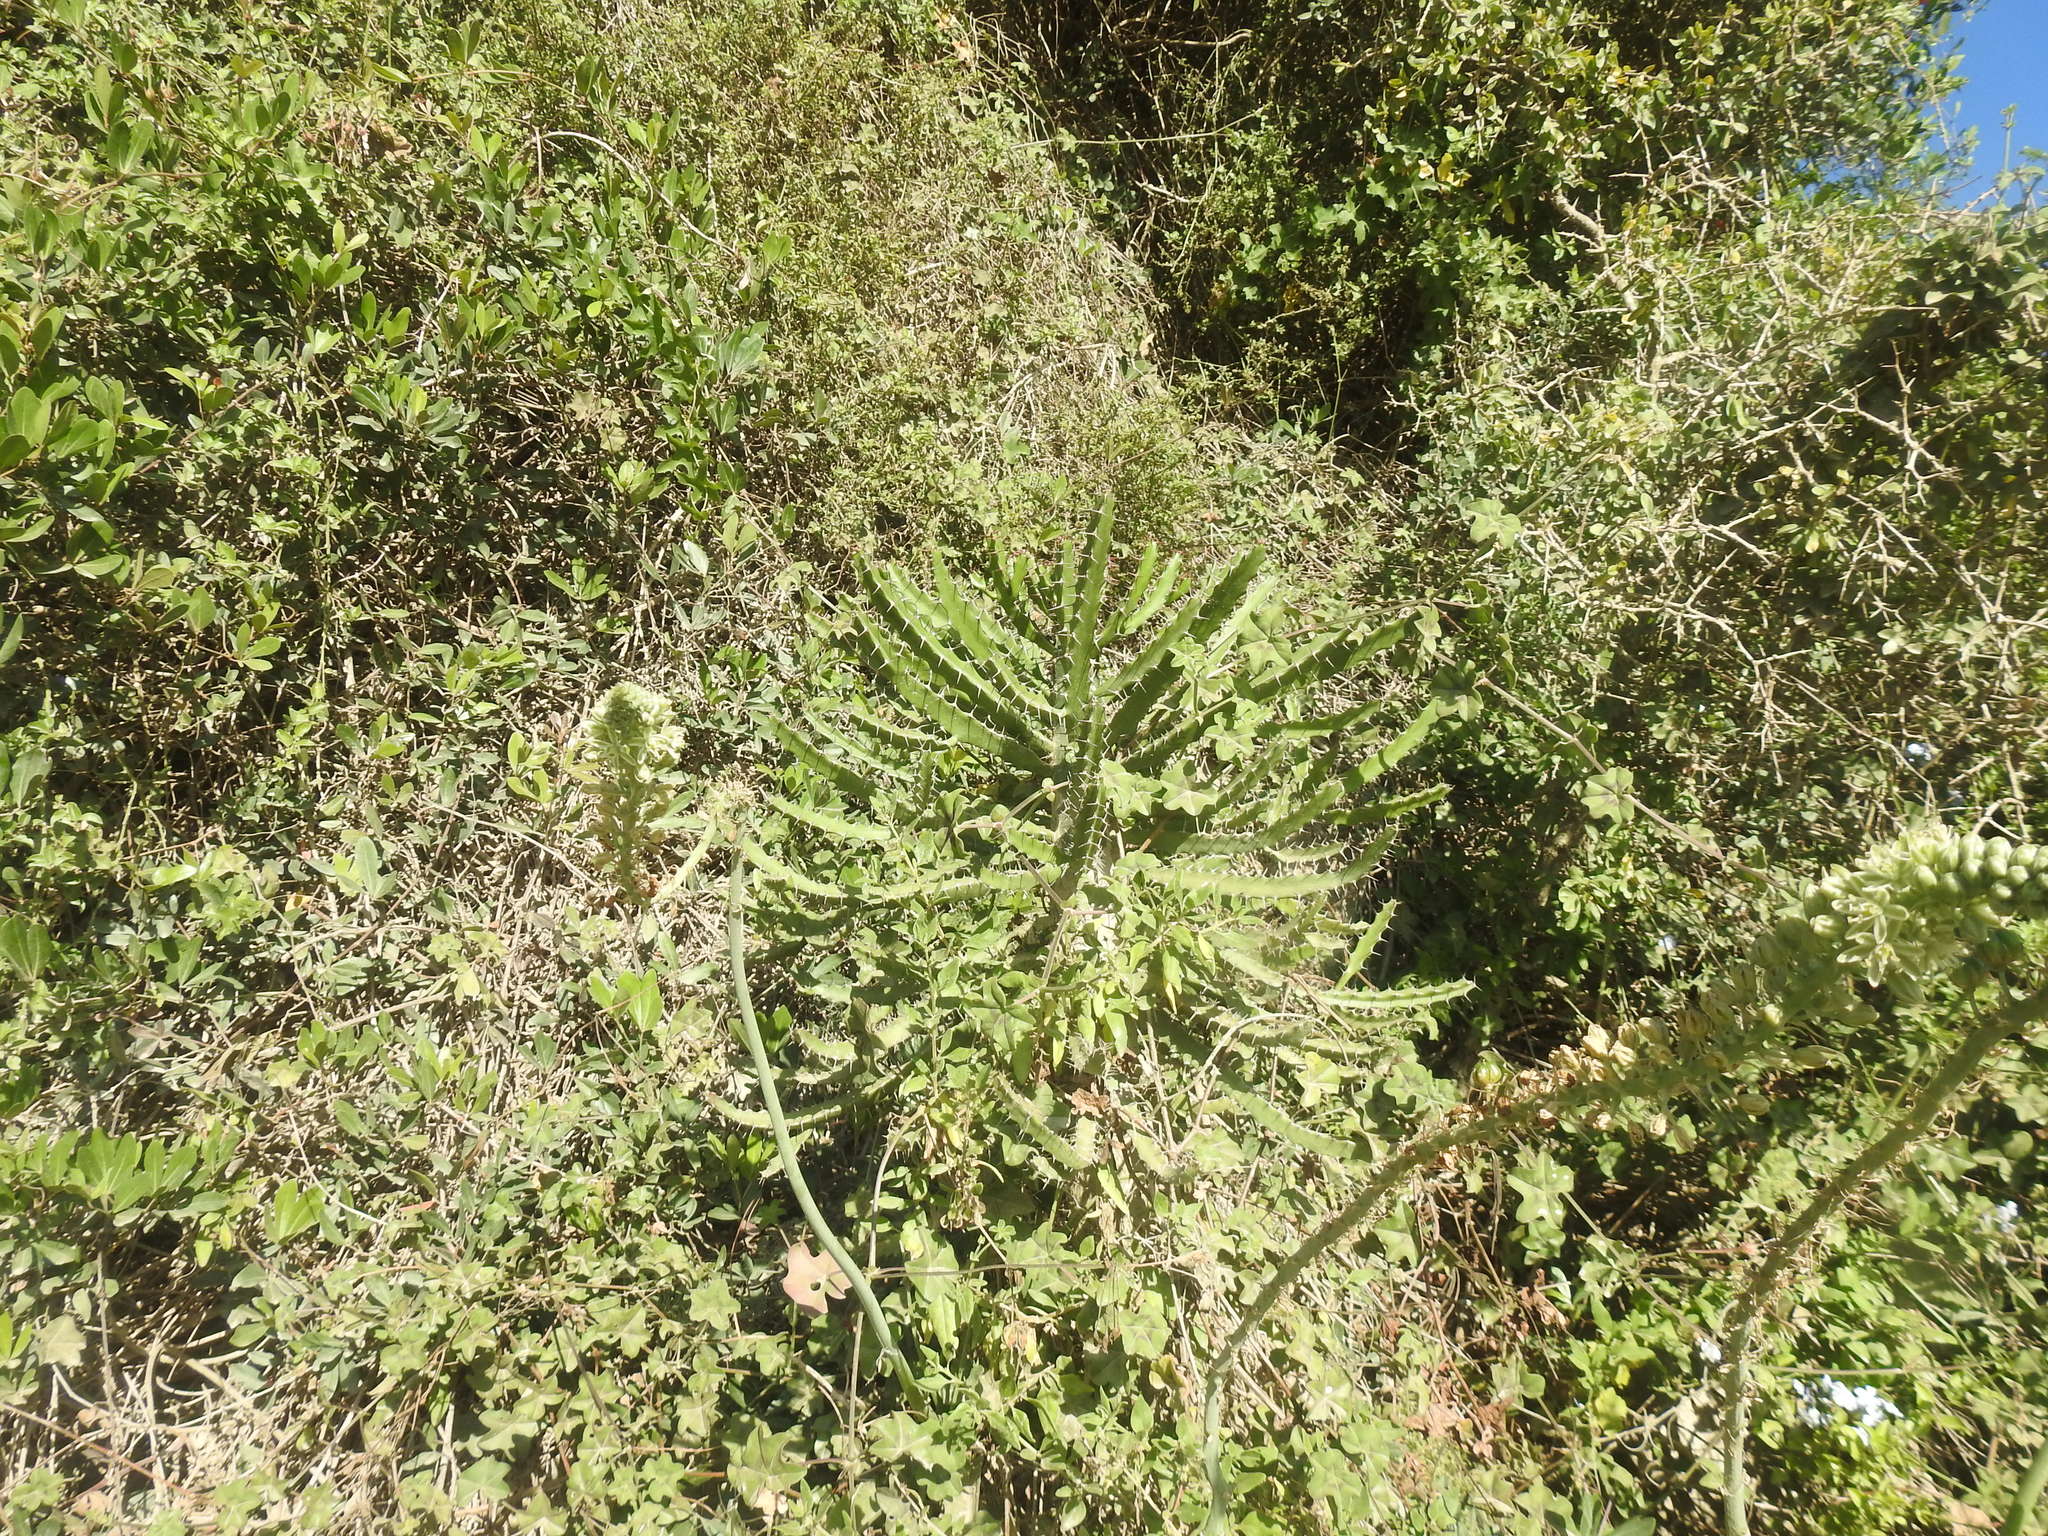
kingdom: Plantae
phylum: Tracheophyta
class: Magnoliopsida
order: Malpighiales
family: Euphorbiaceae
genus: Euphorbia
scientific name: Euphorbia triangularis
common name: Chandelier tree
